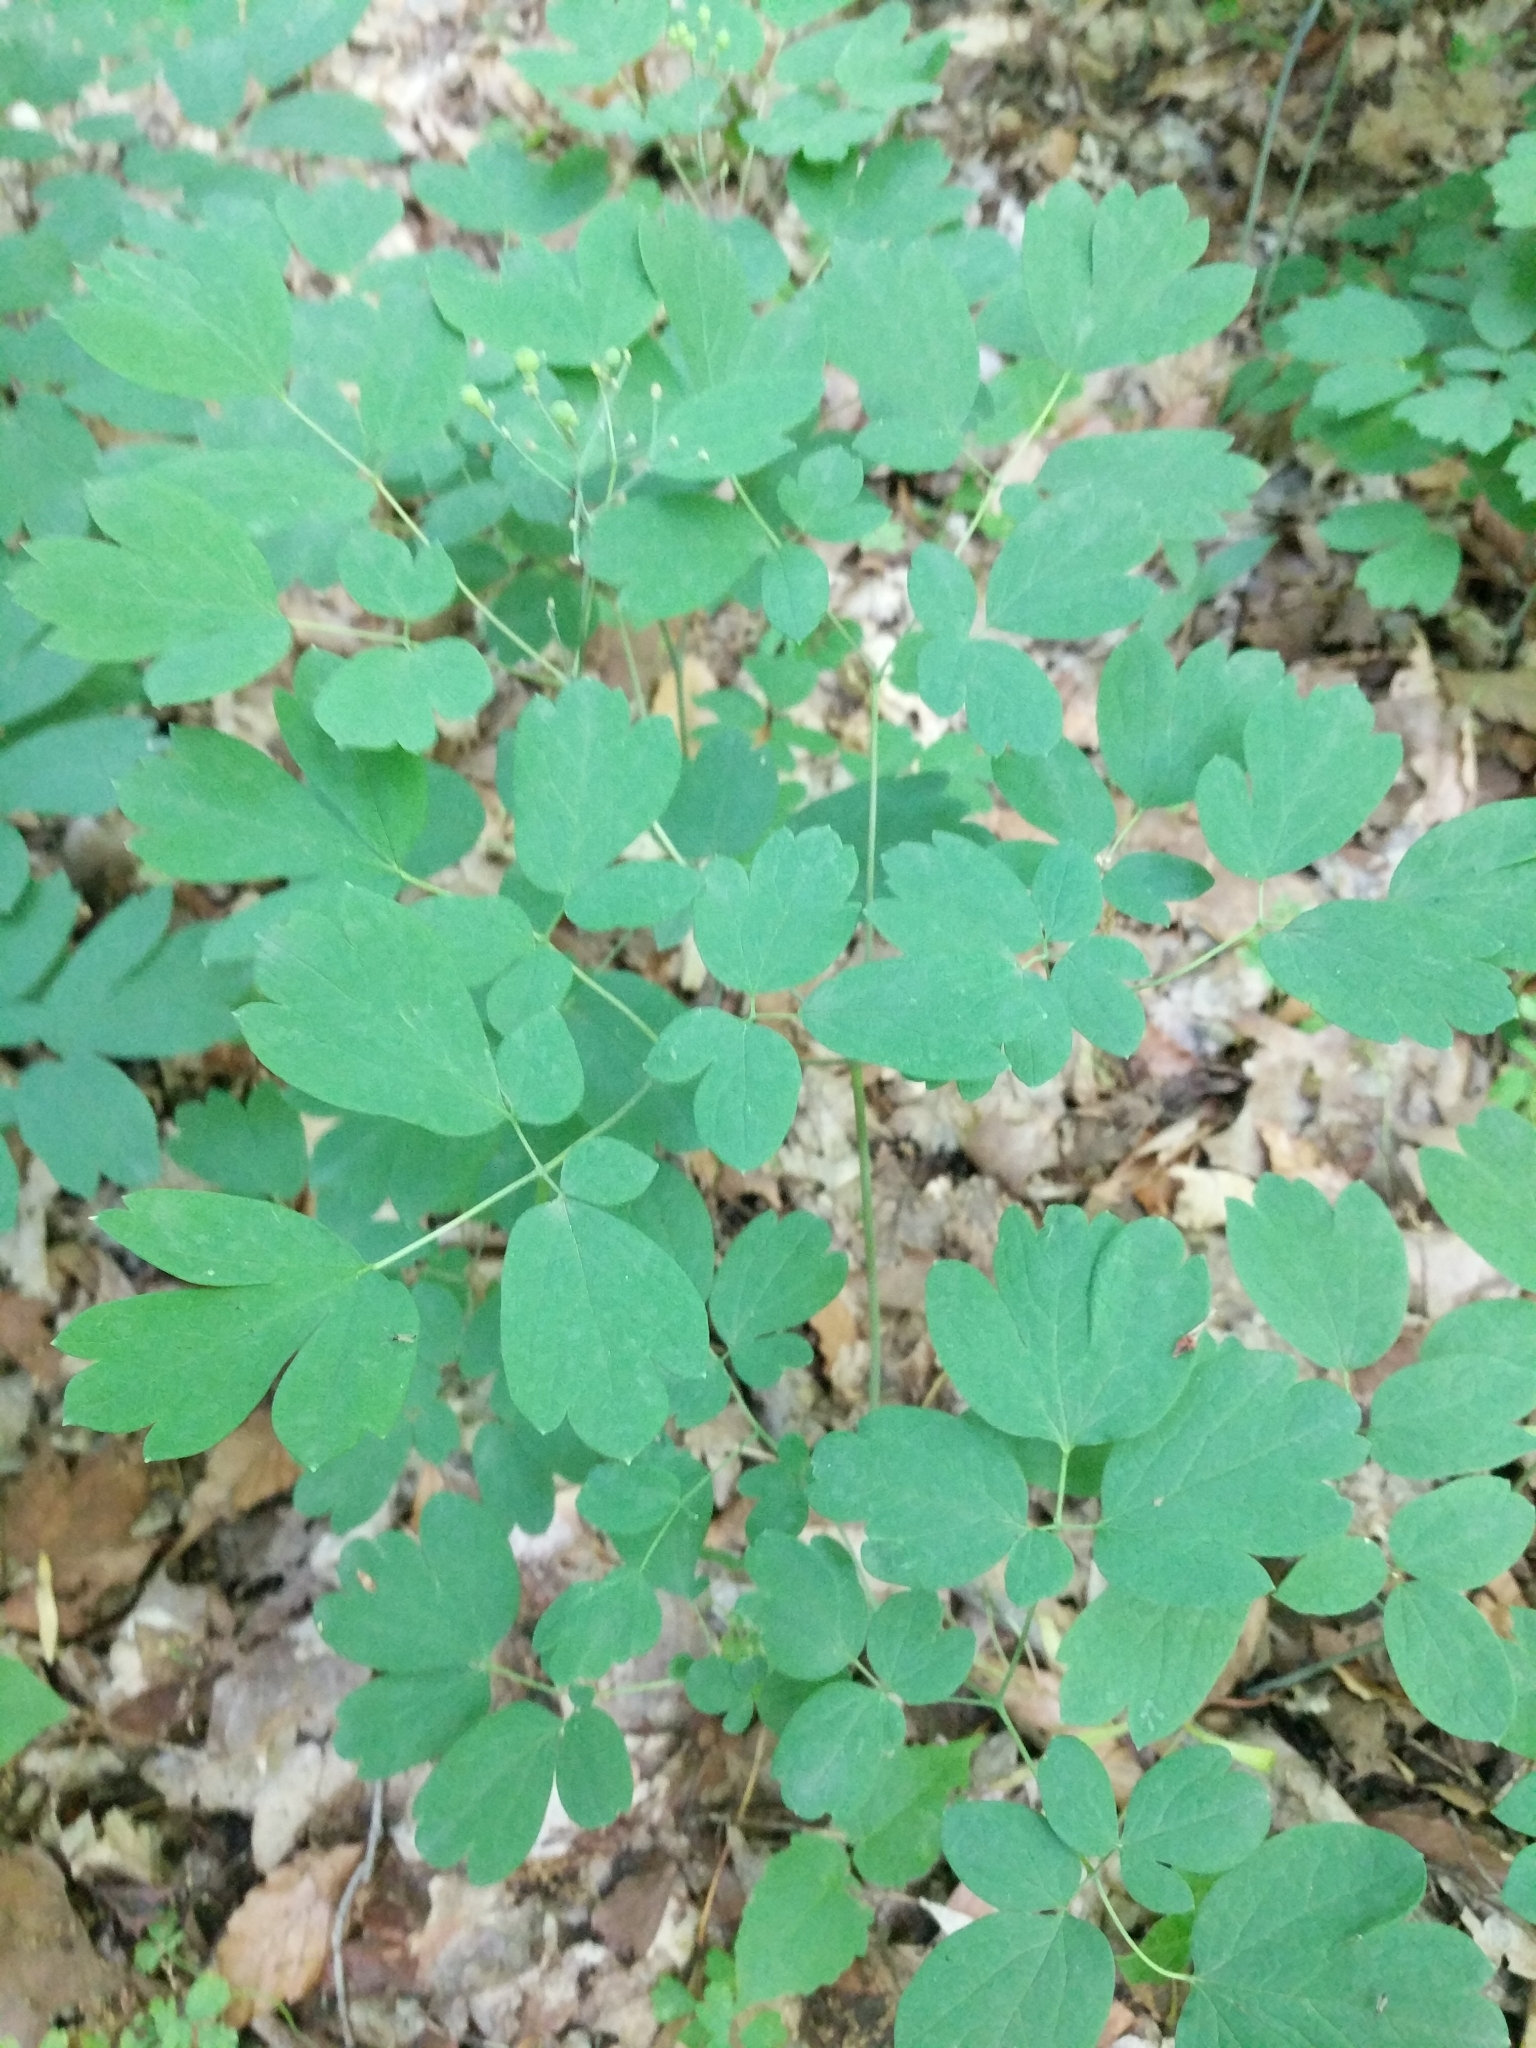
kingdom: Plantae
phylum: Tracheophyta
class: Magnoliopsida
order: Ranunculales
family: Berberidaceae
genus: Caulophyllum
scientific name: Caulophyllum thalictroides
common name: Blue cohosh
